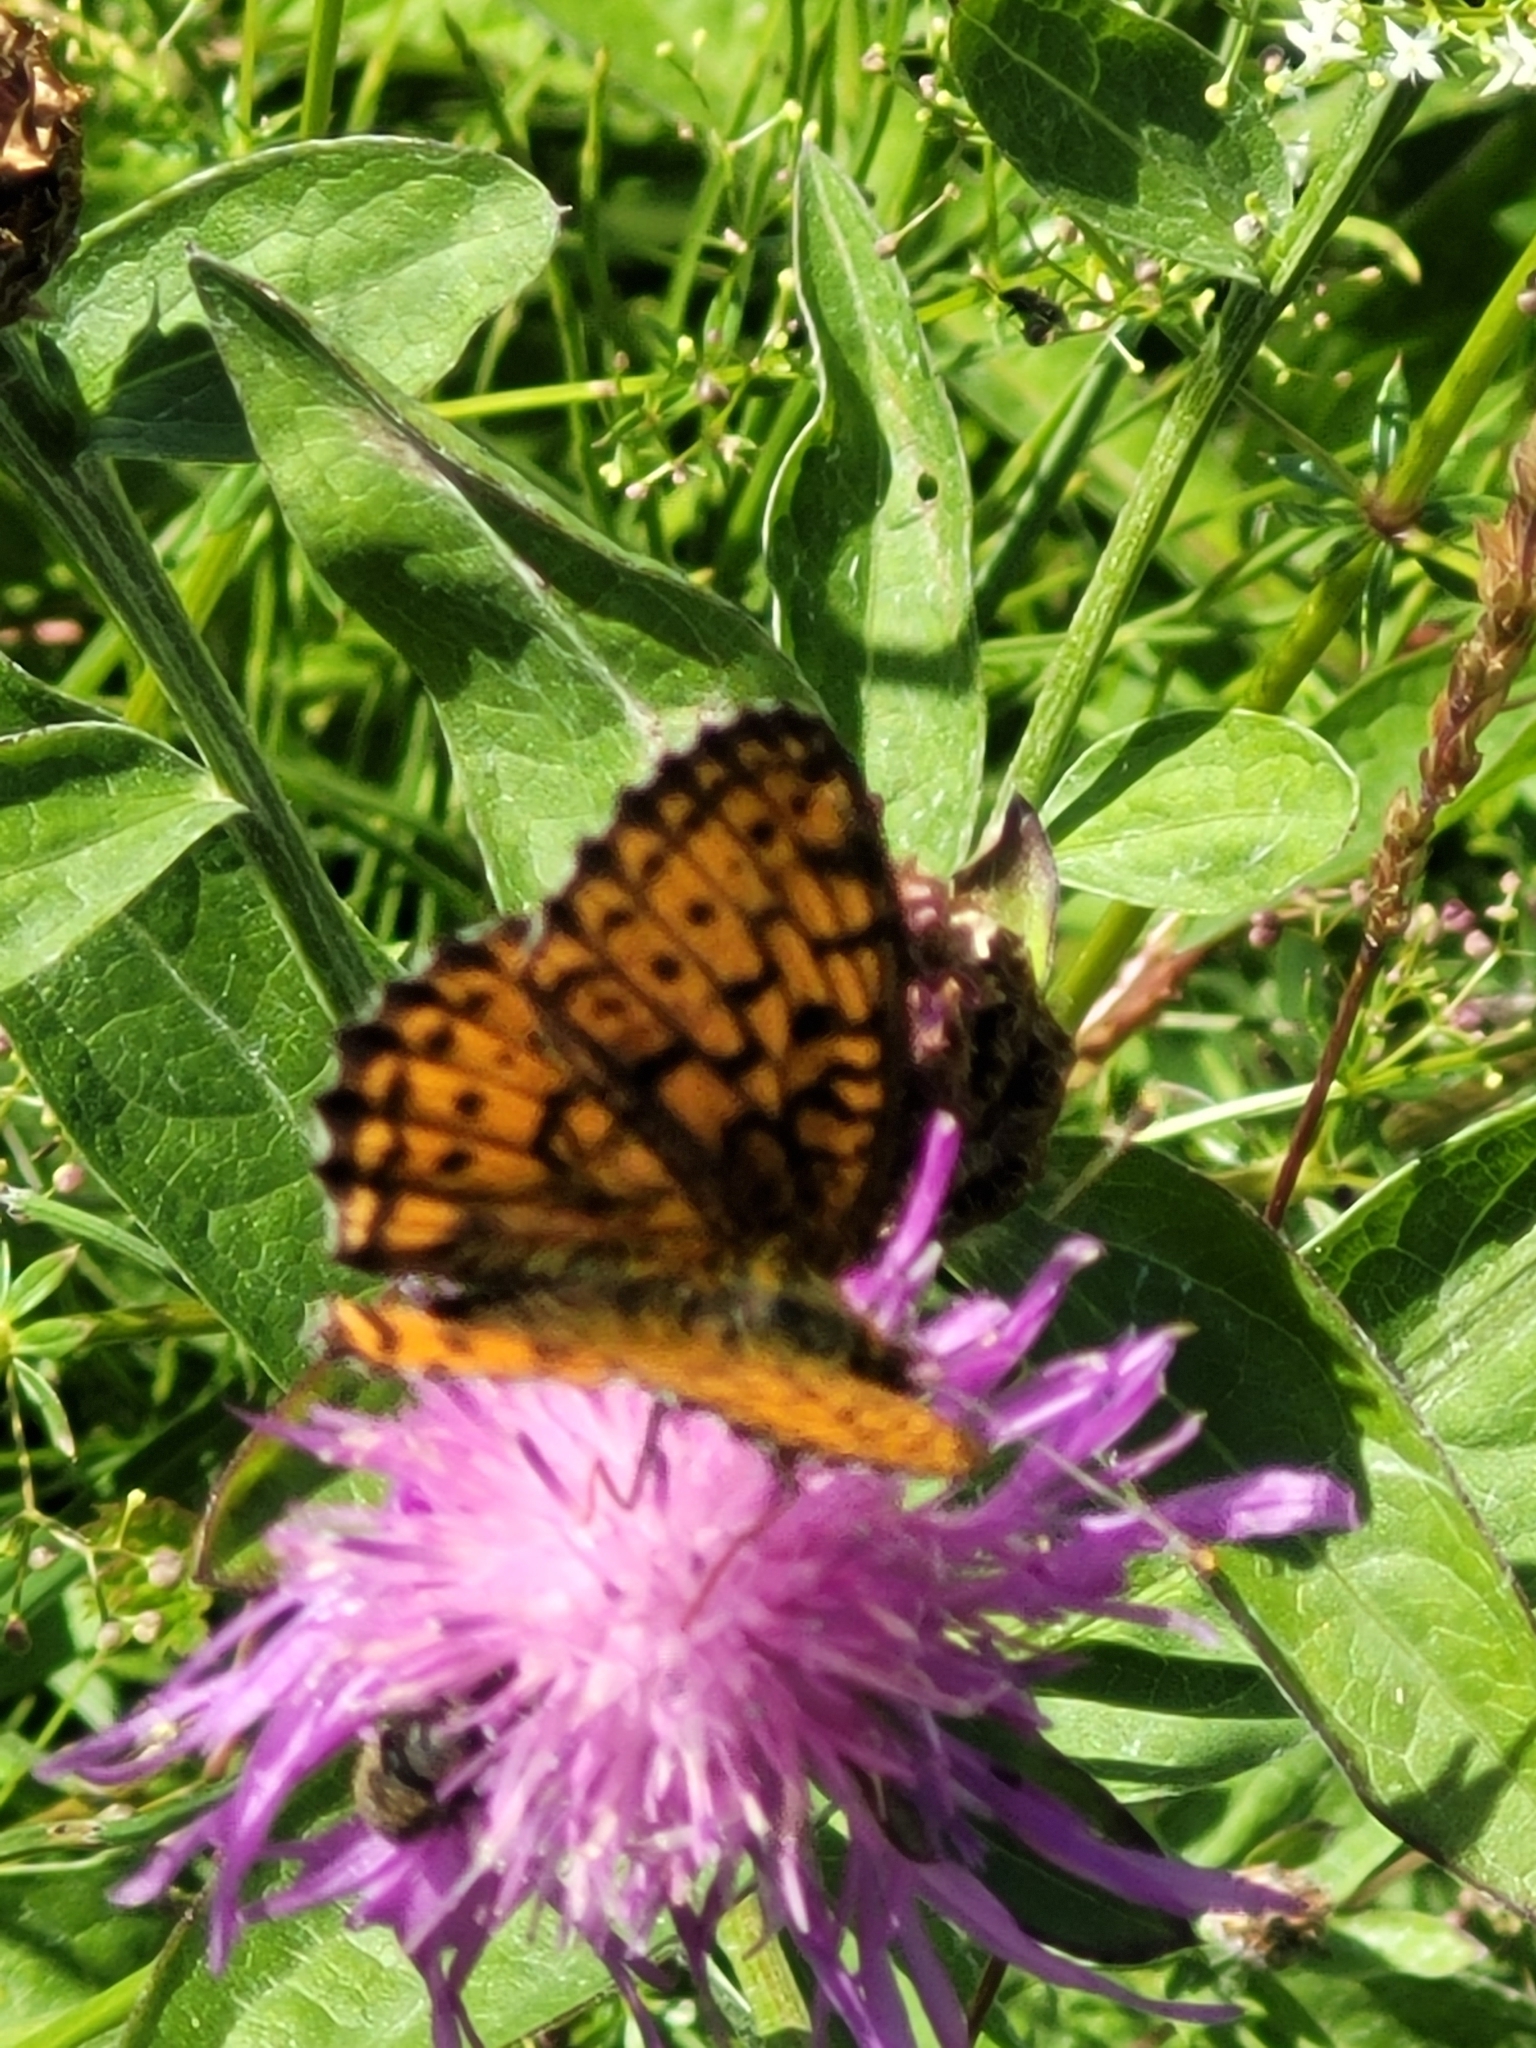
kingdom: Animalia
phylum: Arthropoda
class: Insecta
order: Lepidoptera
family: Nymphalidae
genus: Brenthis
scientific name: Brenthis ino
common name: Lesser marbled fritillary
